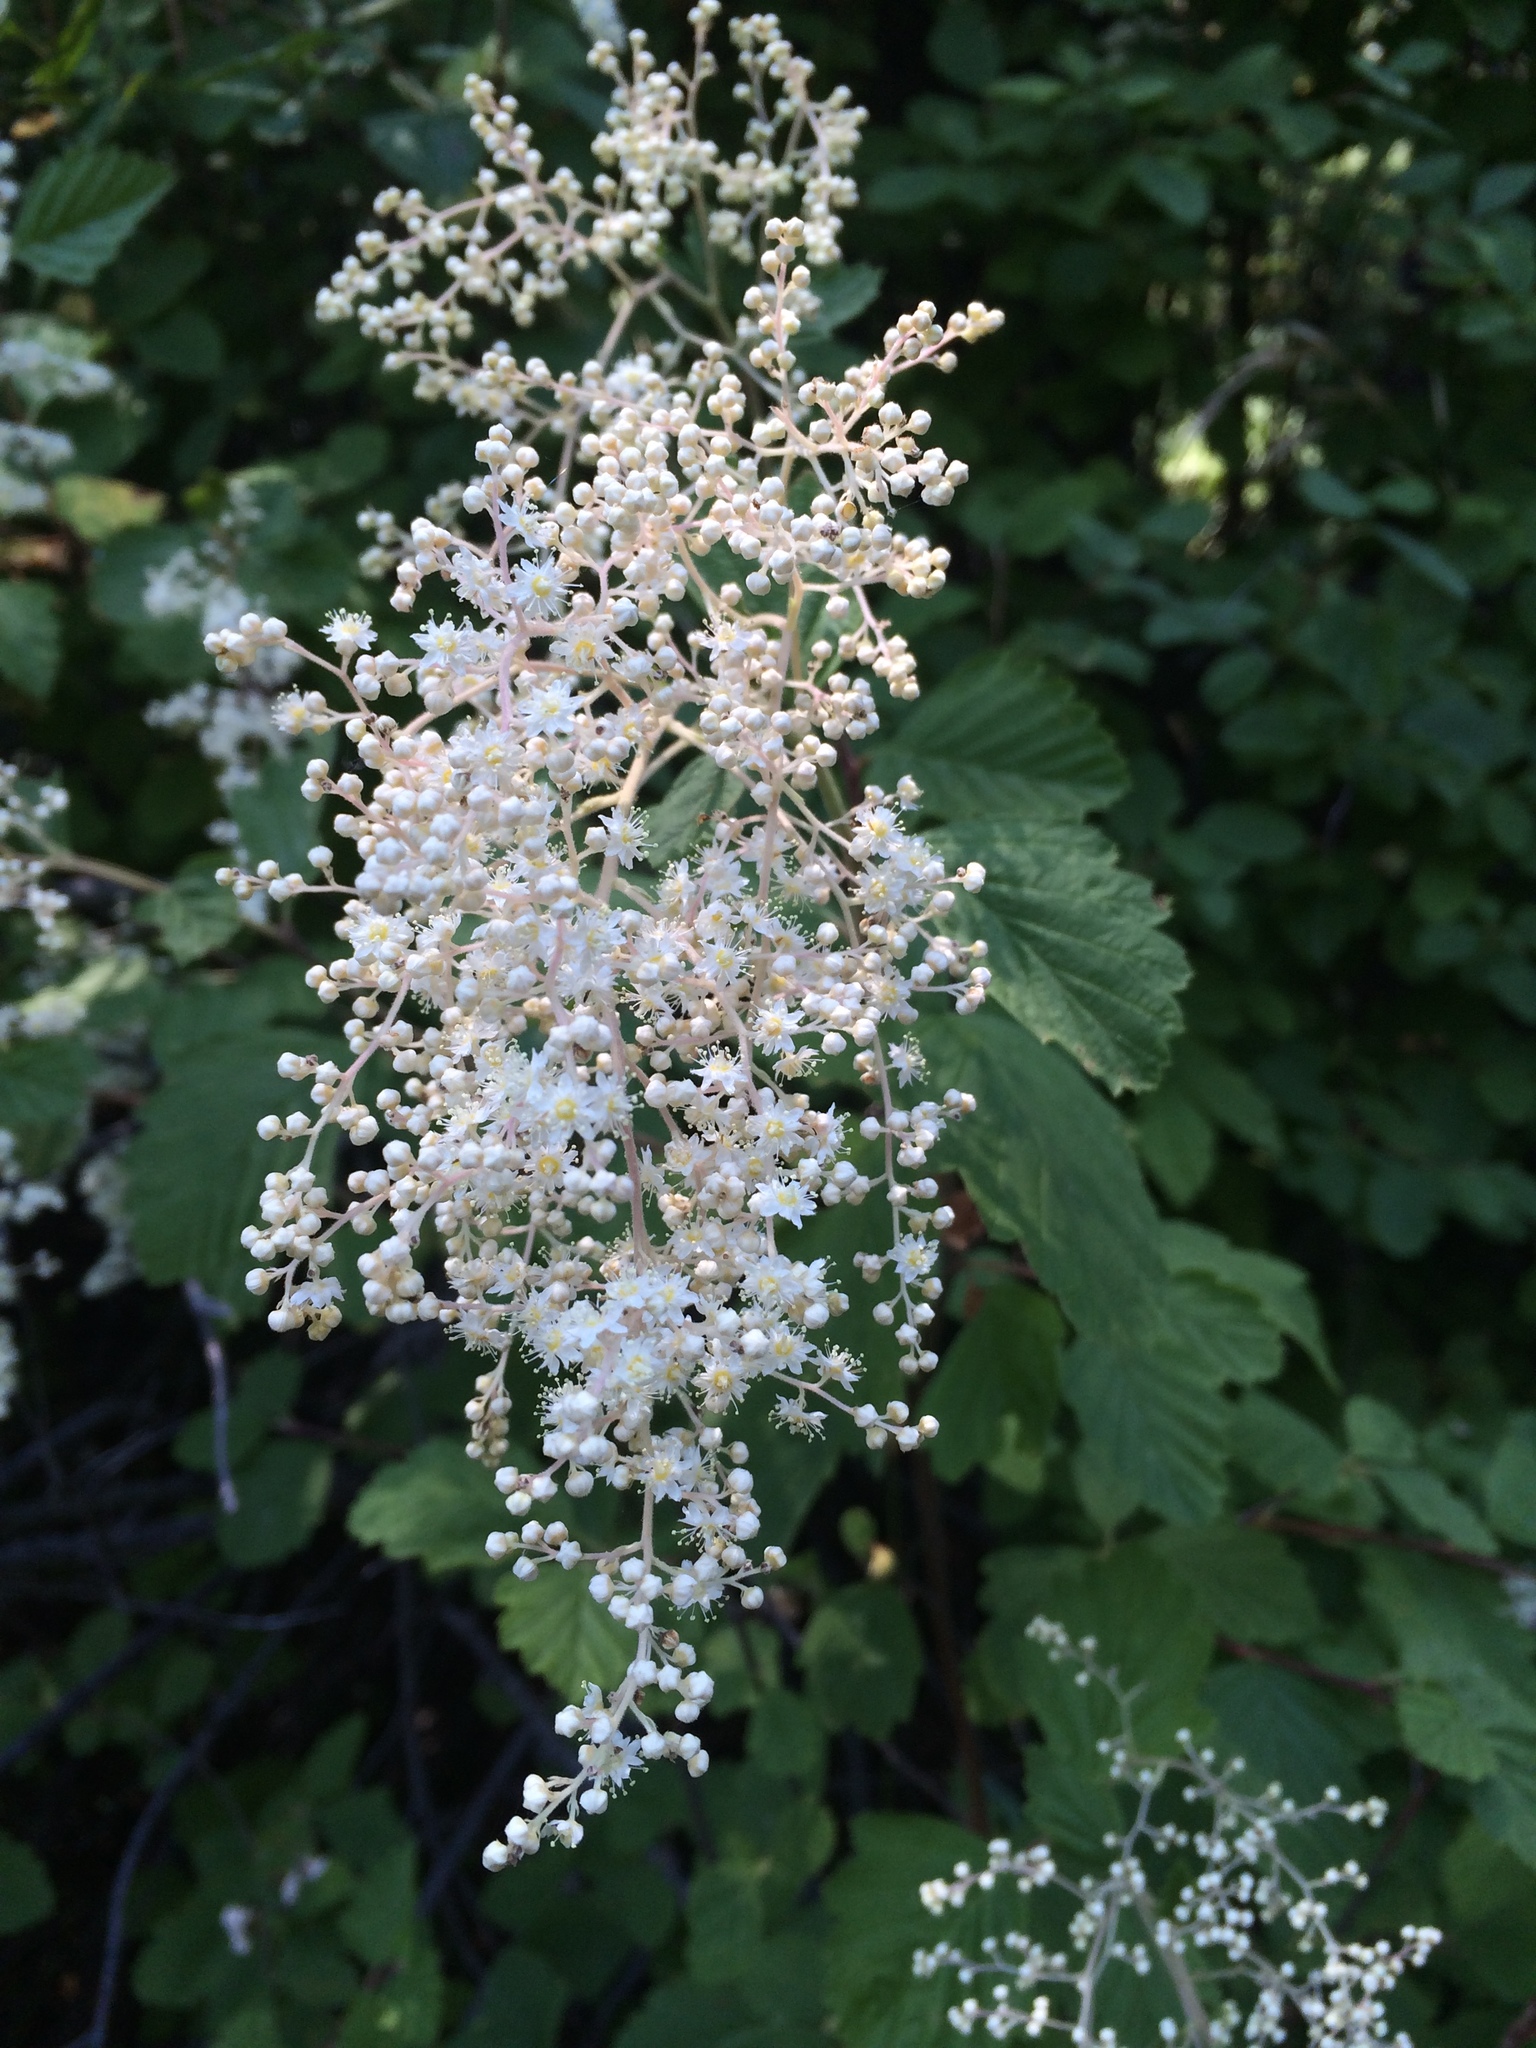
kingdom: Plantae
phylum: Tracheophyta
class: Magnoliopsida
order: Rosales
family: Rosaceae
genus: Holodiscus
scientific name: Holodiscus discolor
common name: Oceanspray
